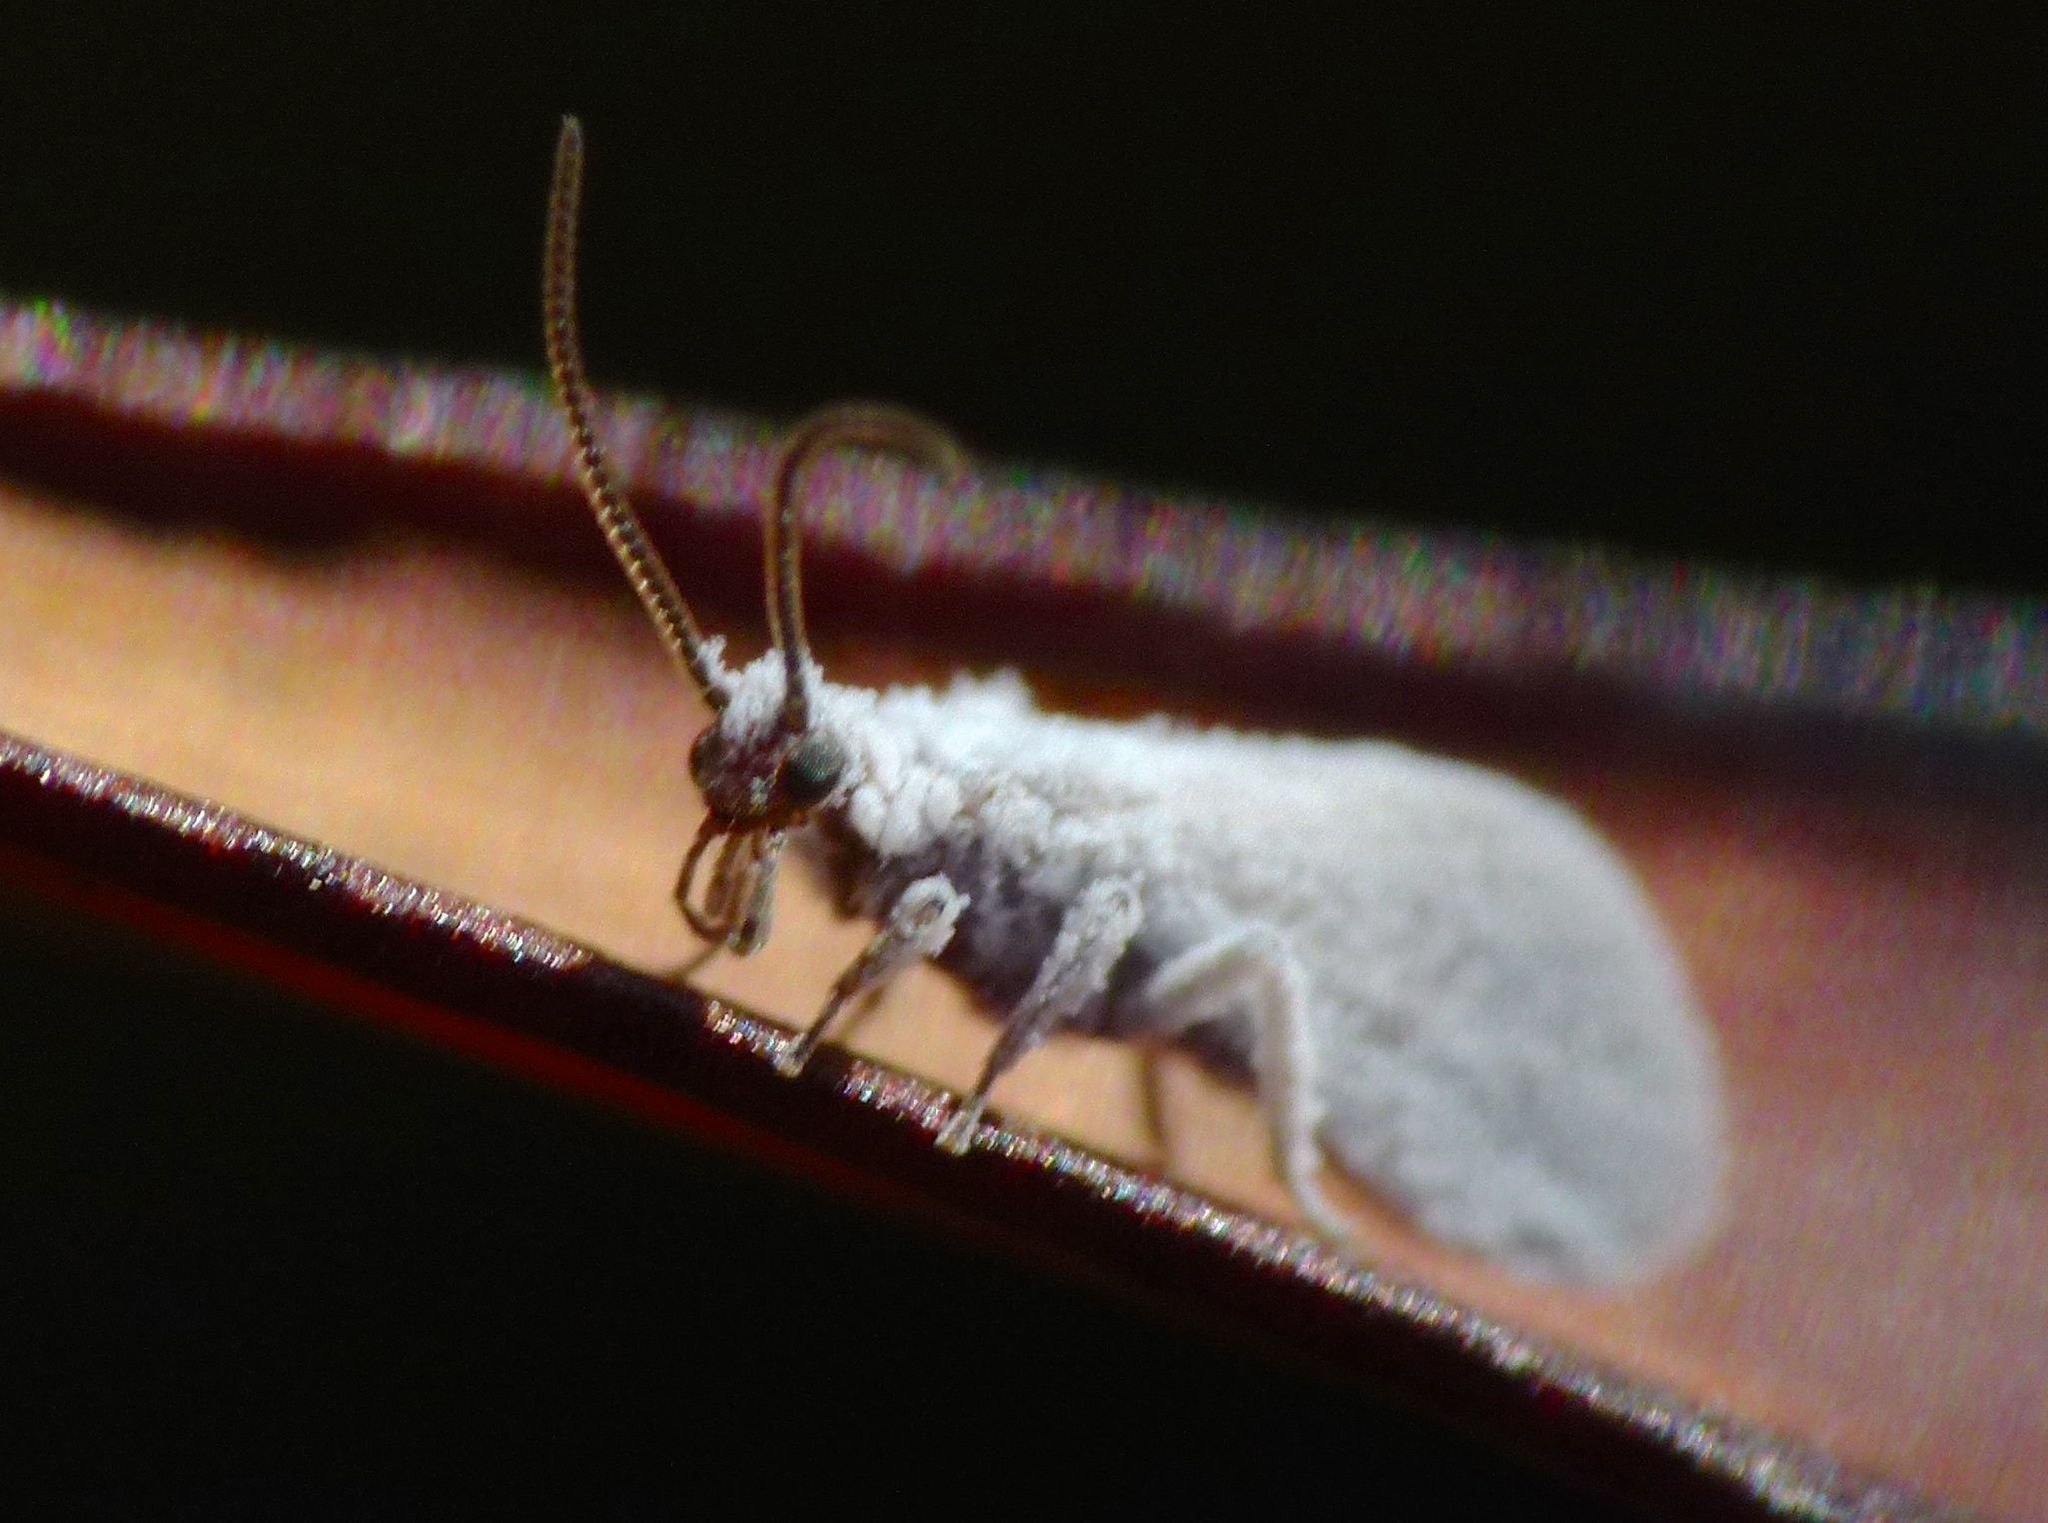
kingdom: Animalia
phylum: Arthropoda
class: Insecta
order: Neuroptera
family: Coniopterygidae
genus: Cryptoscenea
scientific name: Cryptoscenea australiensis
